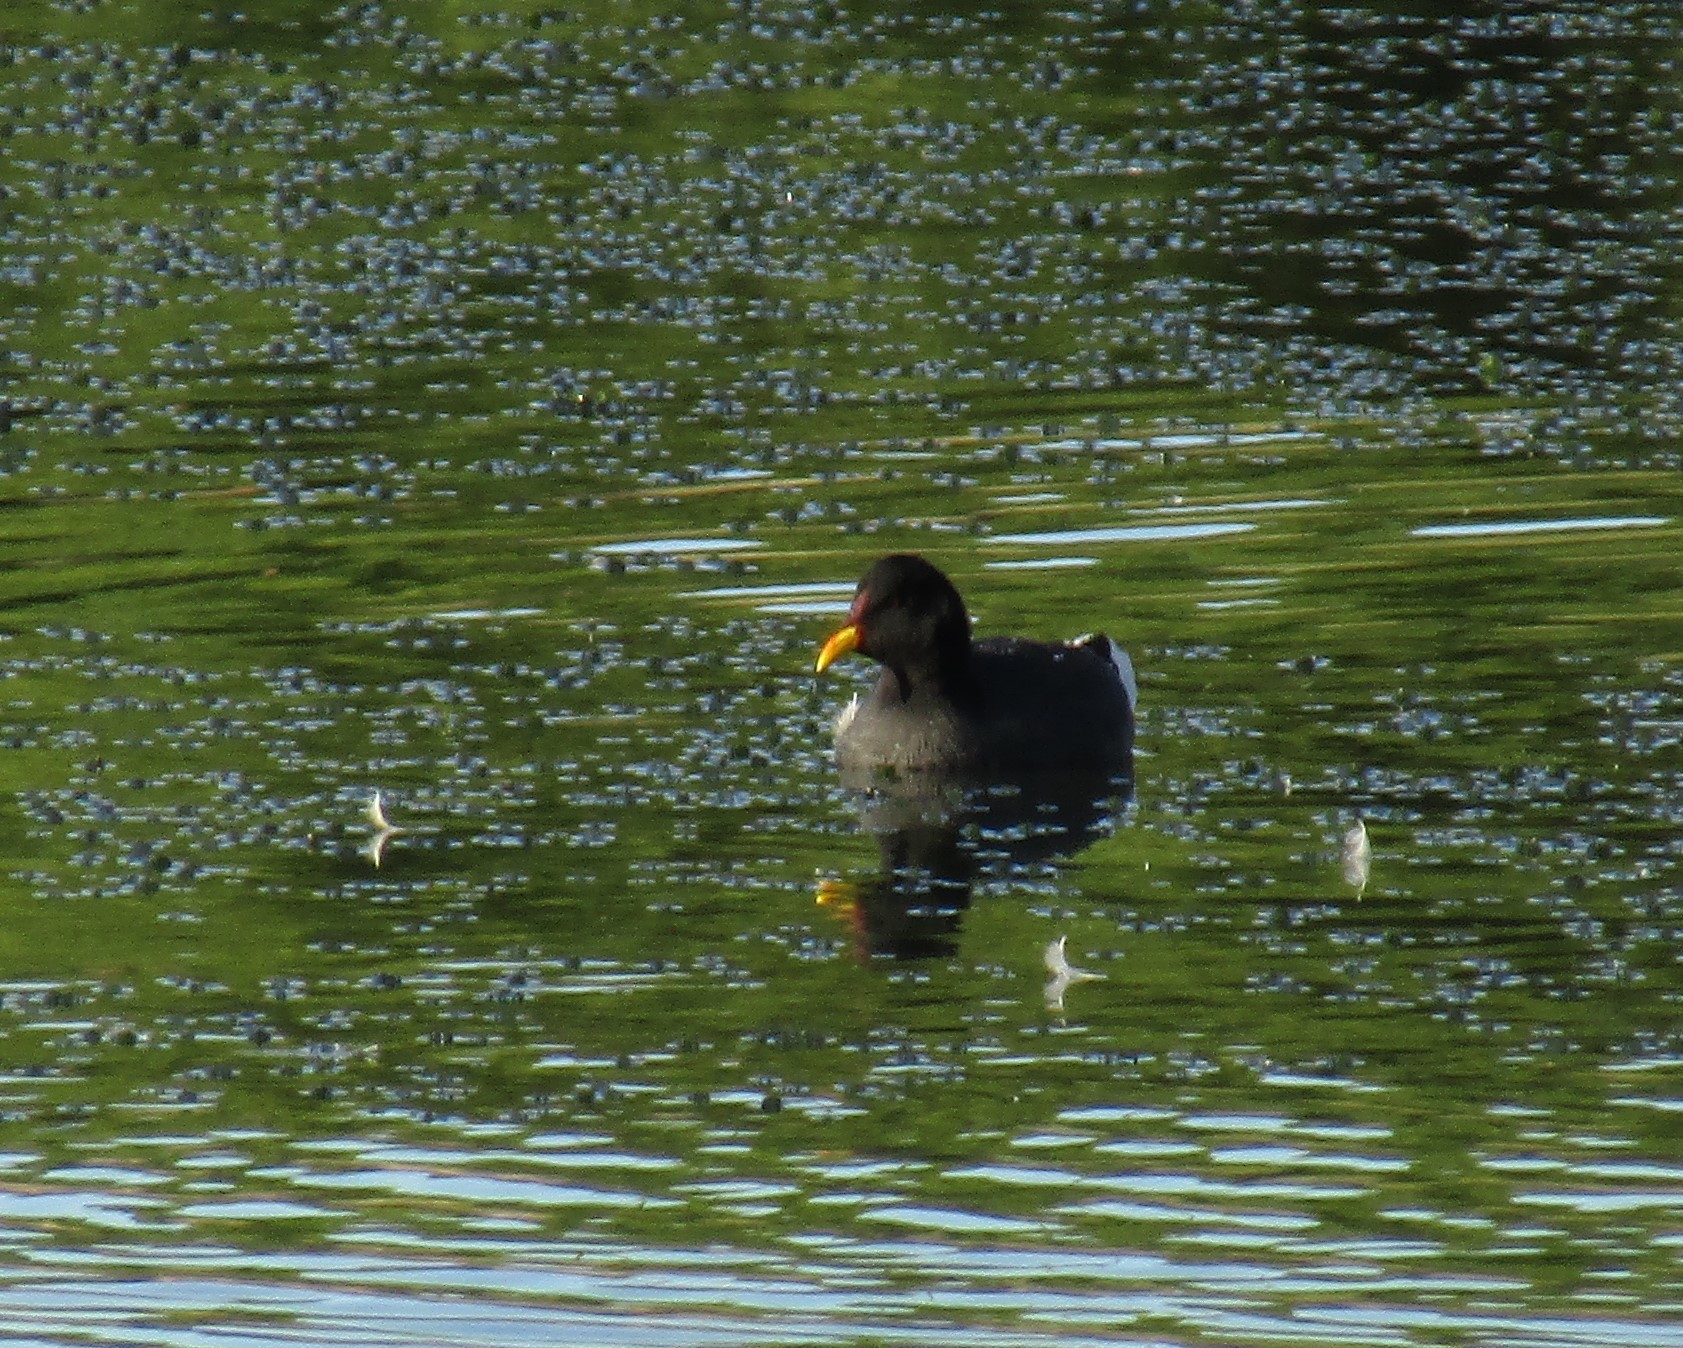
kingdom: Animalia
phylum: Chordata
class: Aves
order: Gruiformes
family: Rallidae
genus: Gallinula
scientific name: Gallinula chloropus
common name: Common moorhen
